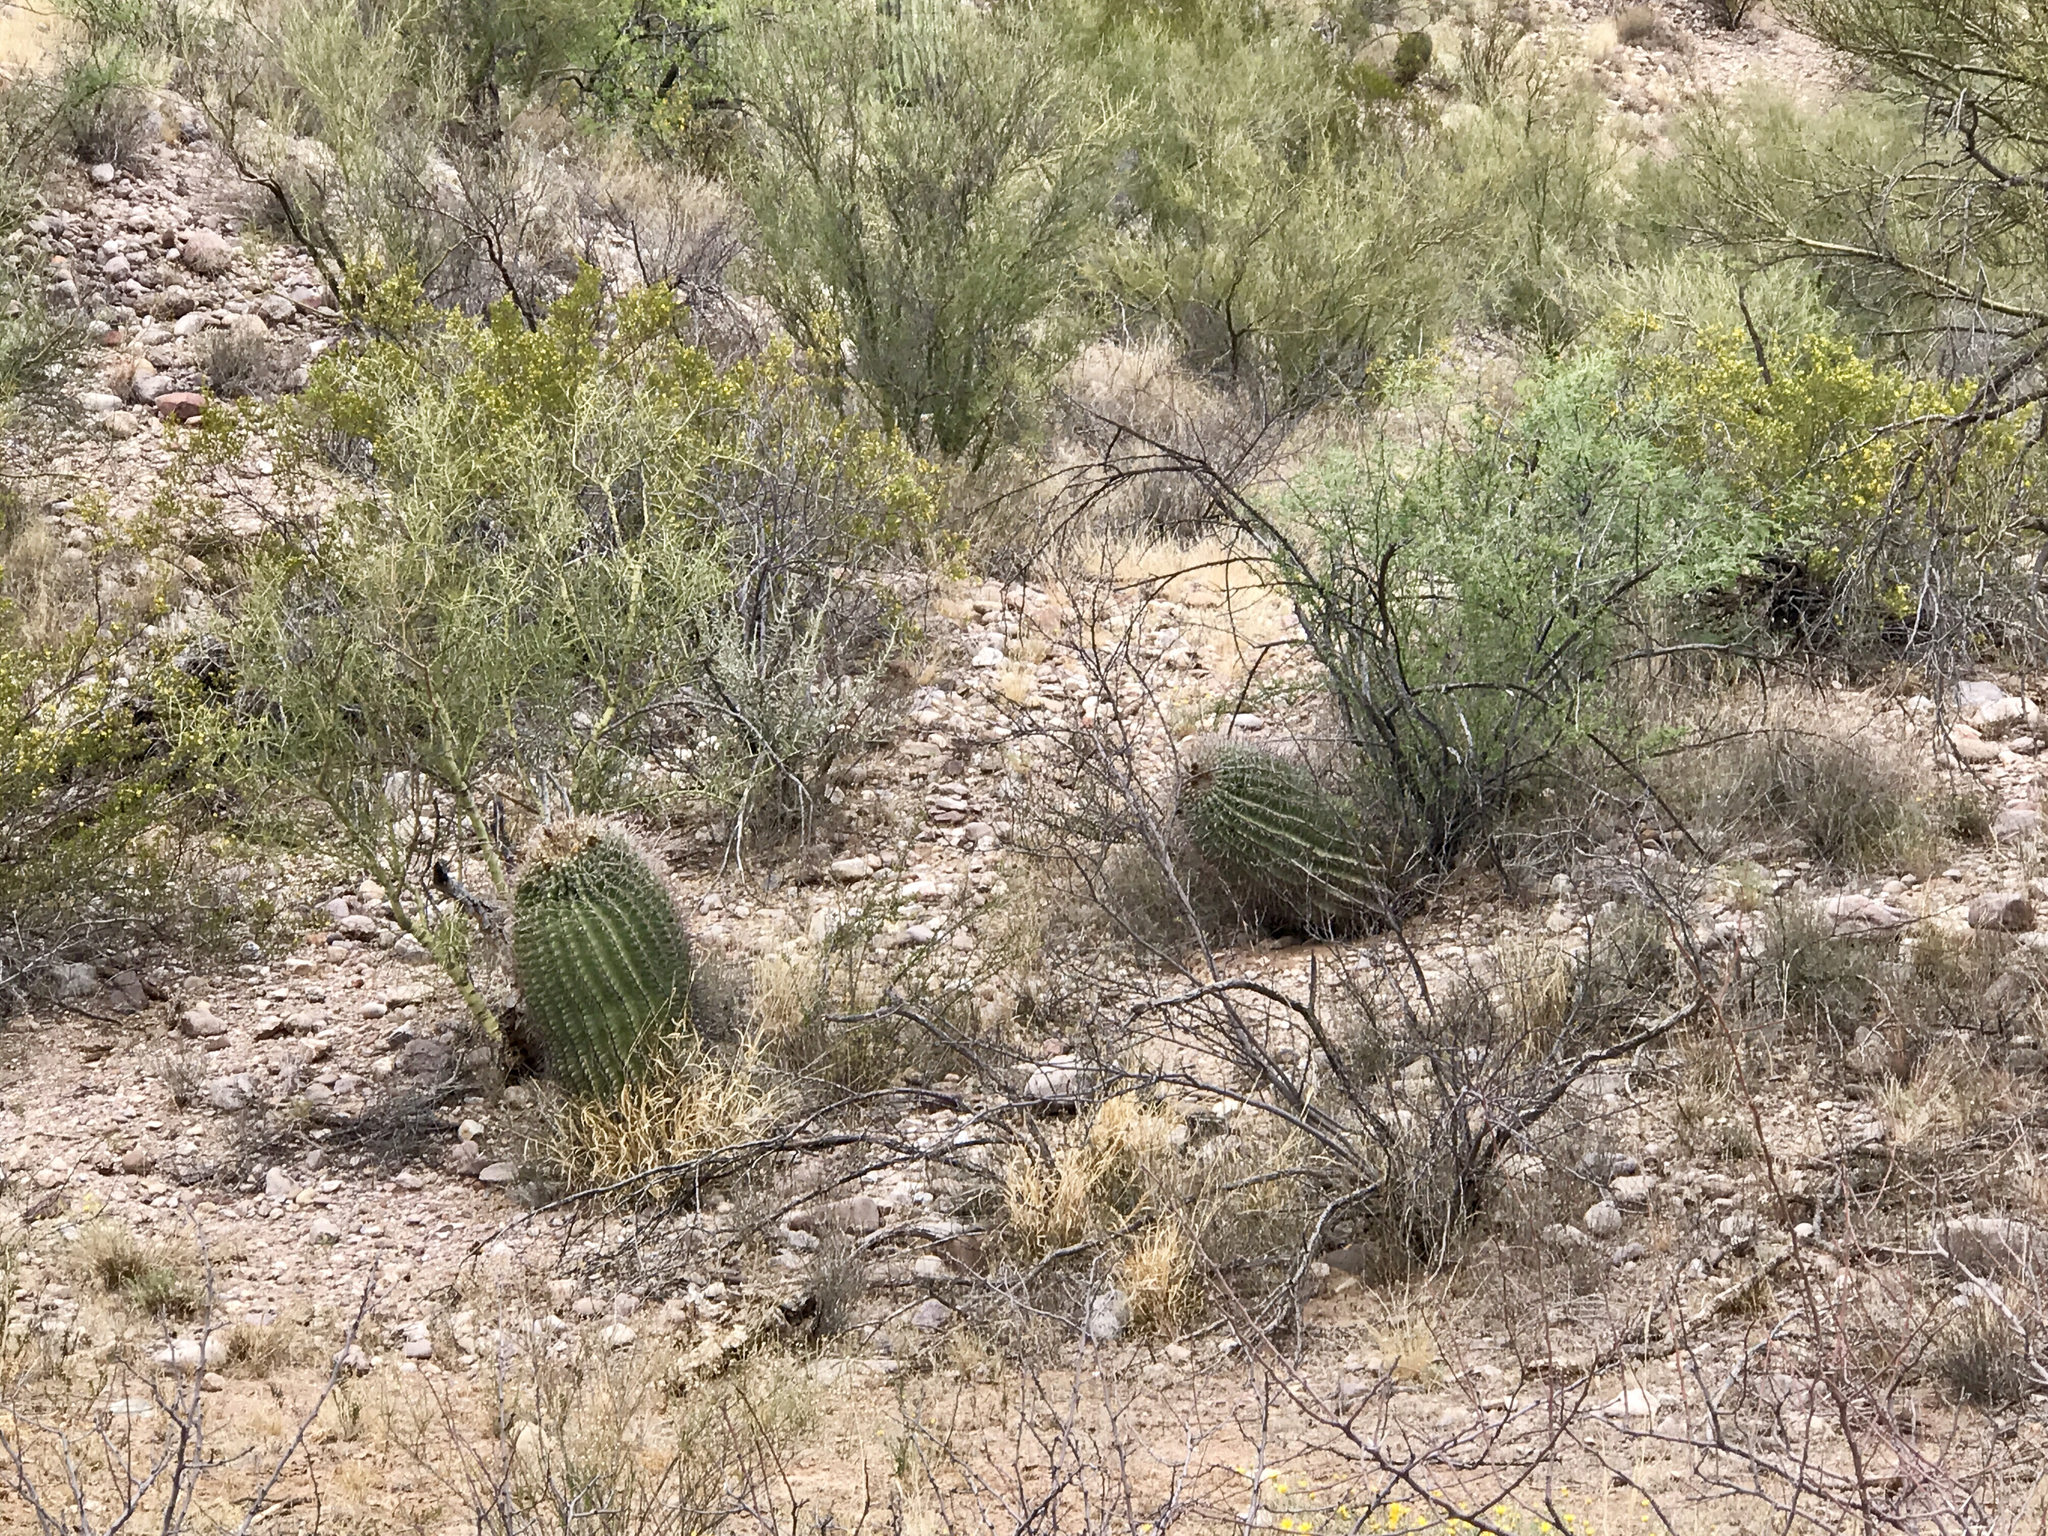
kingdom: Plantae
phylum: Tracheophyta
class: Magnoliopsida
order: Caryophyllales
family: Cactaceae
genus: Ferocactus
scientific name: Ferocactus wislizeni
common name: Candy barrel cactus
